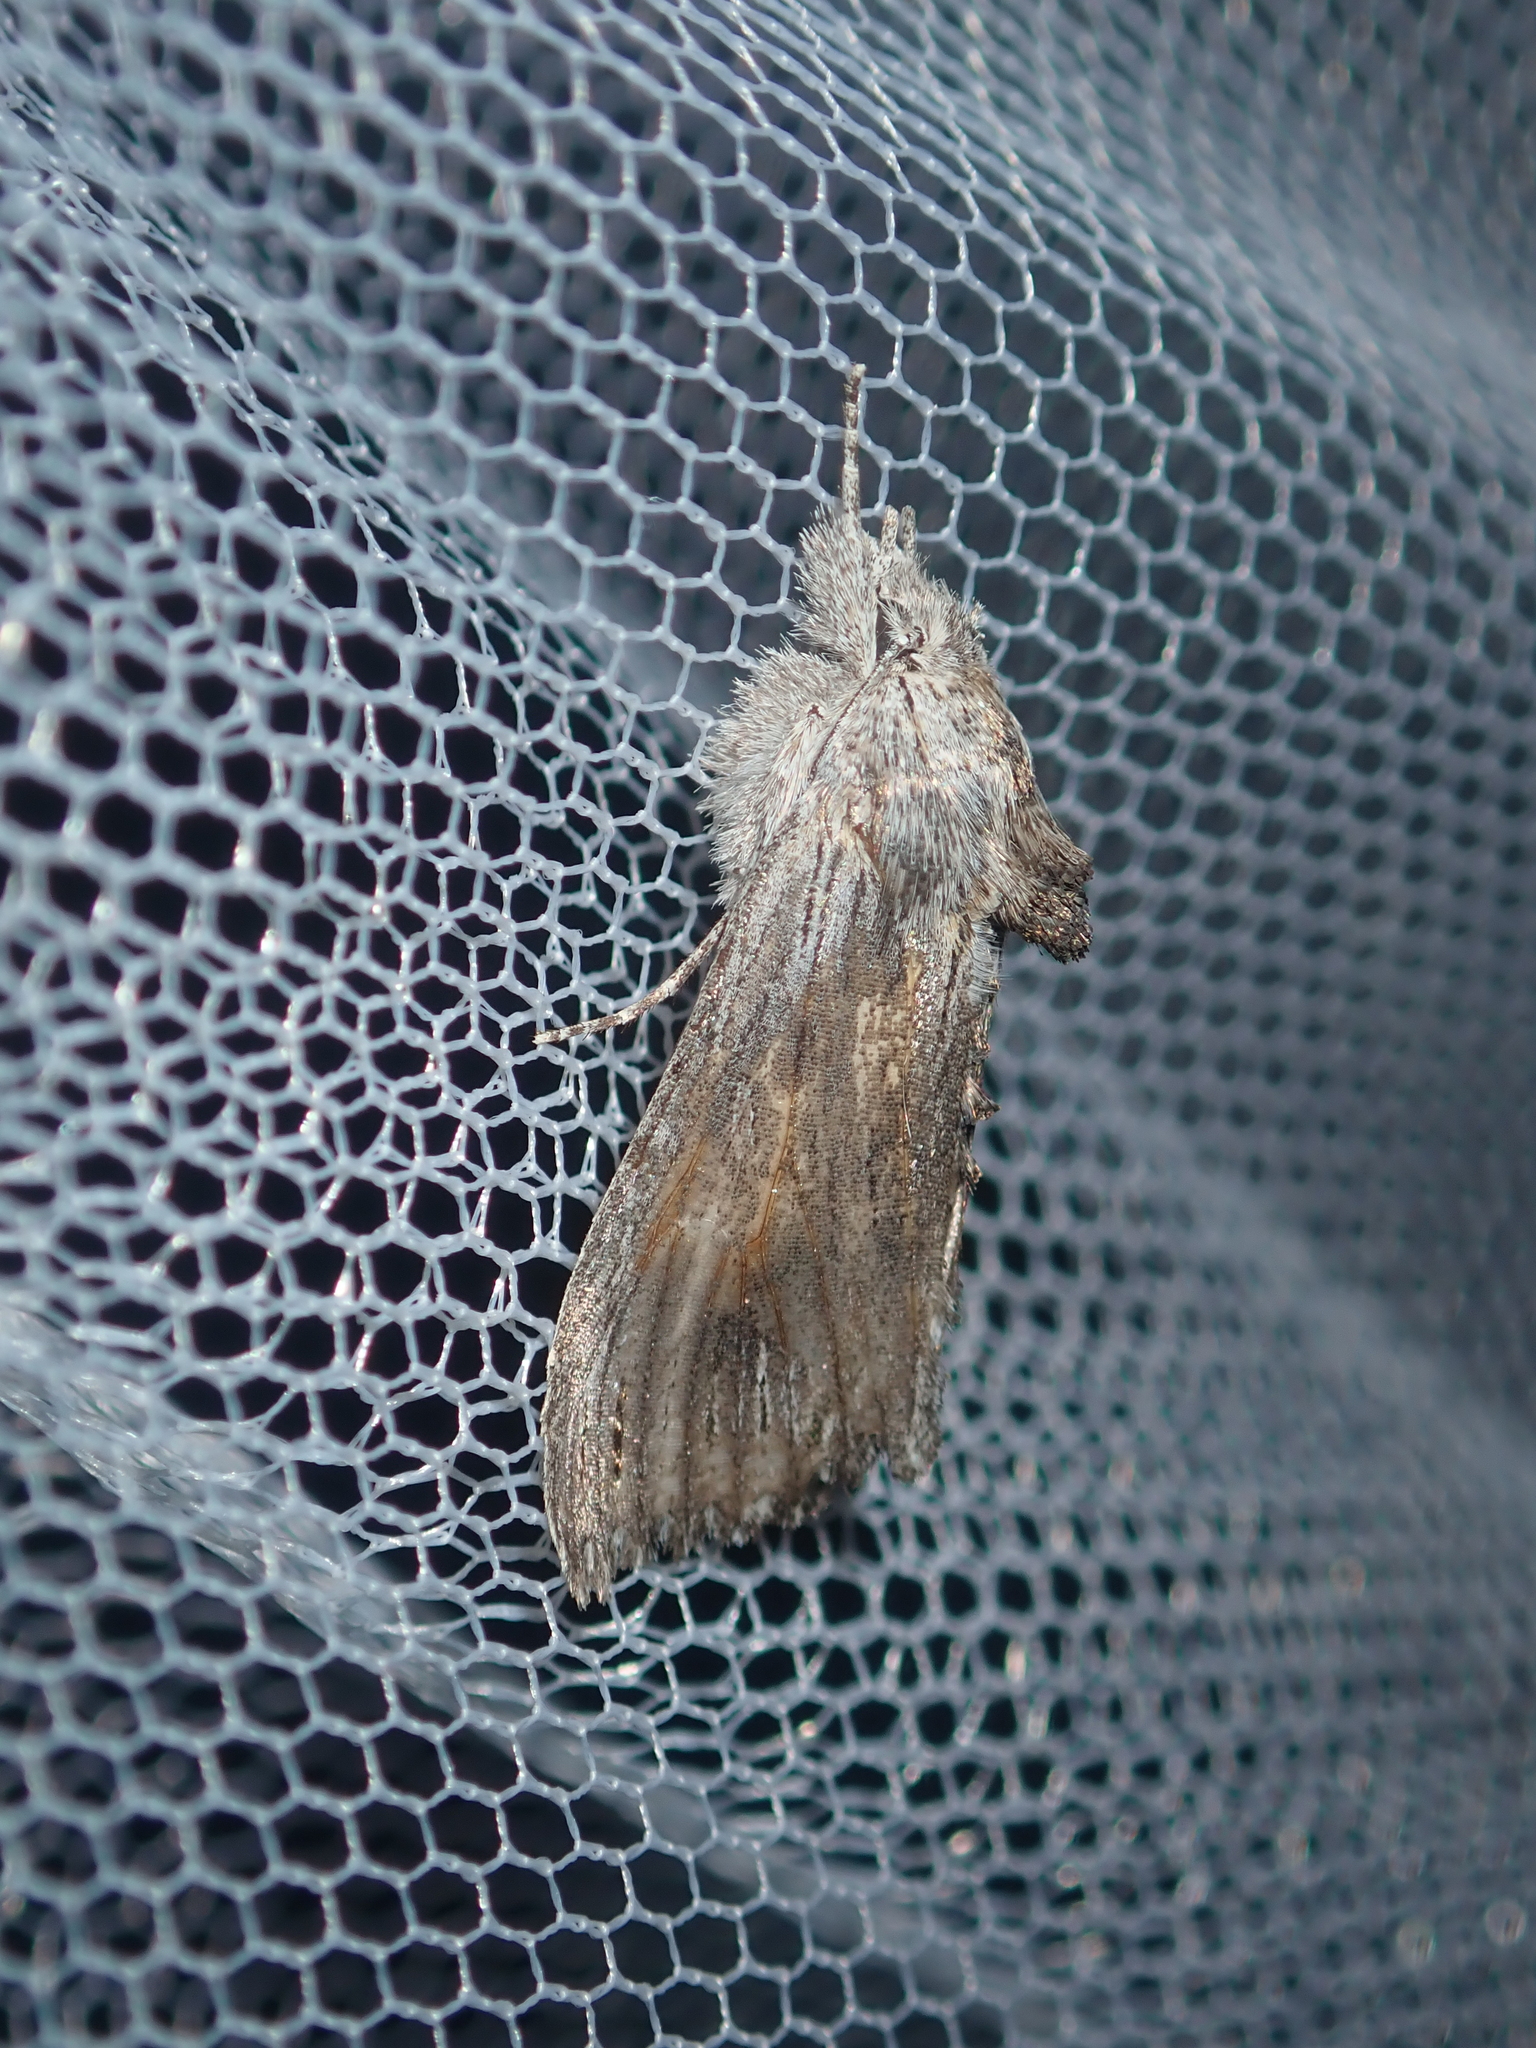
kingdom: Animalia
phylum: Arthropoda
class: Insecta
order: Lepidoptera
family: Noctuidae
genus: Buciara
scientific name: Buciara bipartita
